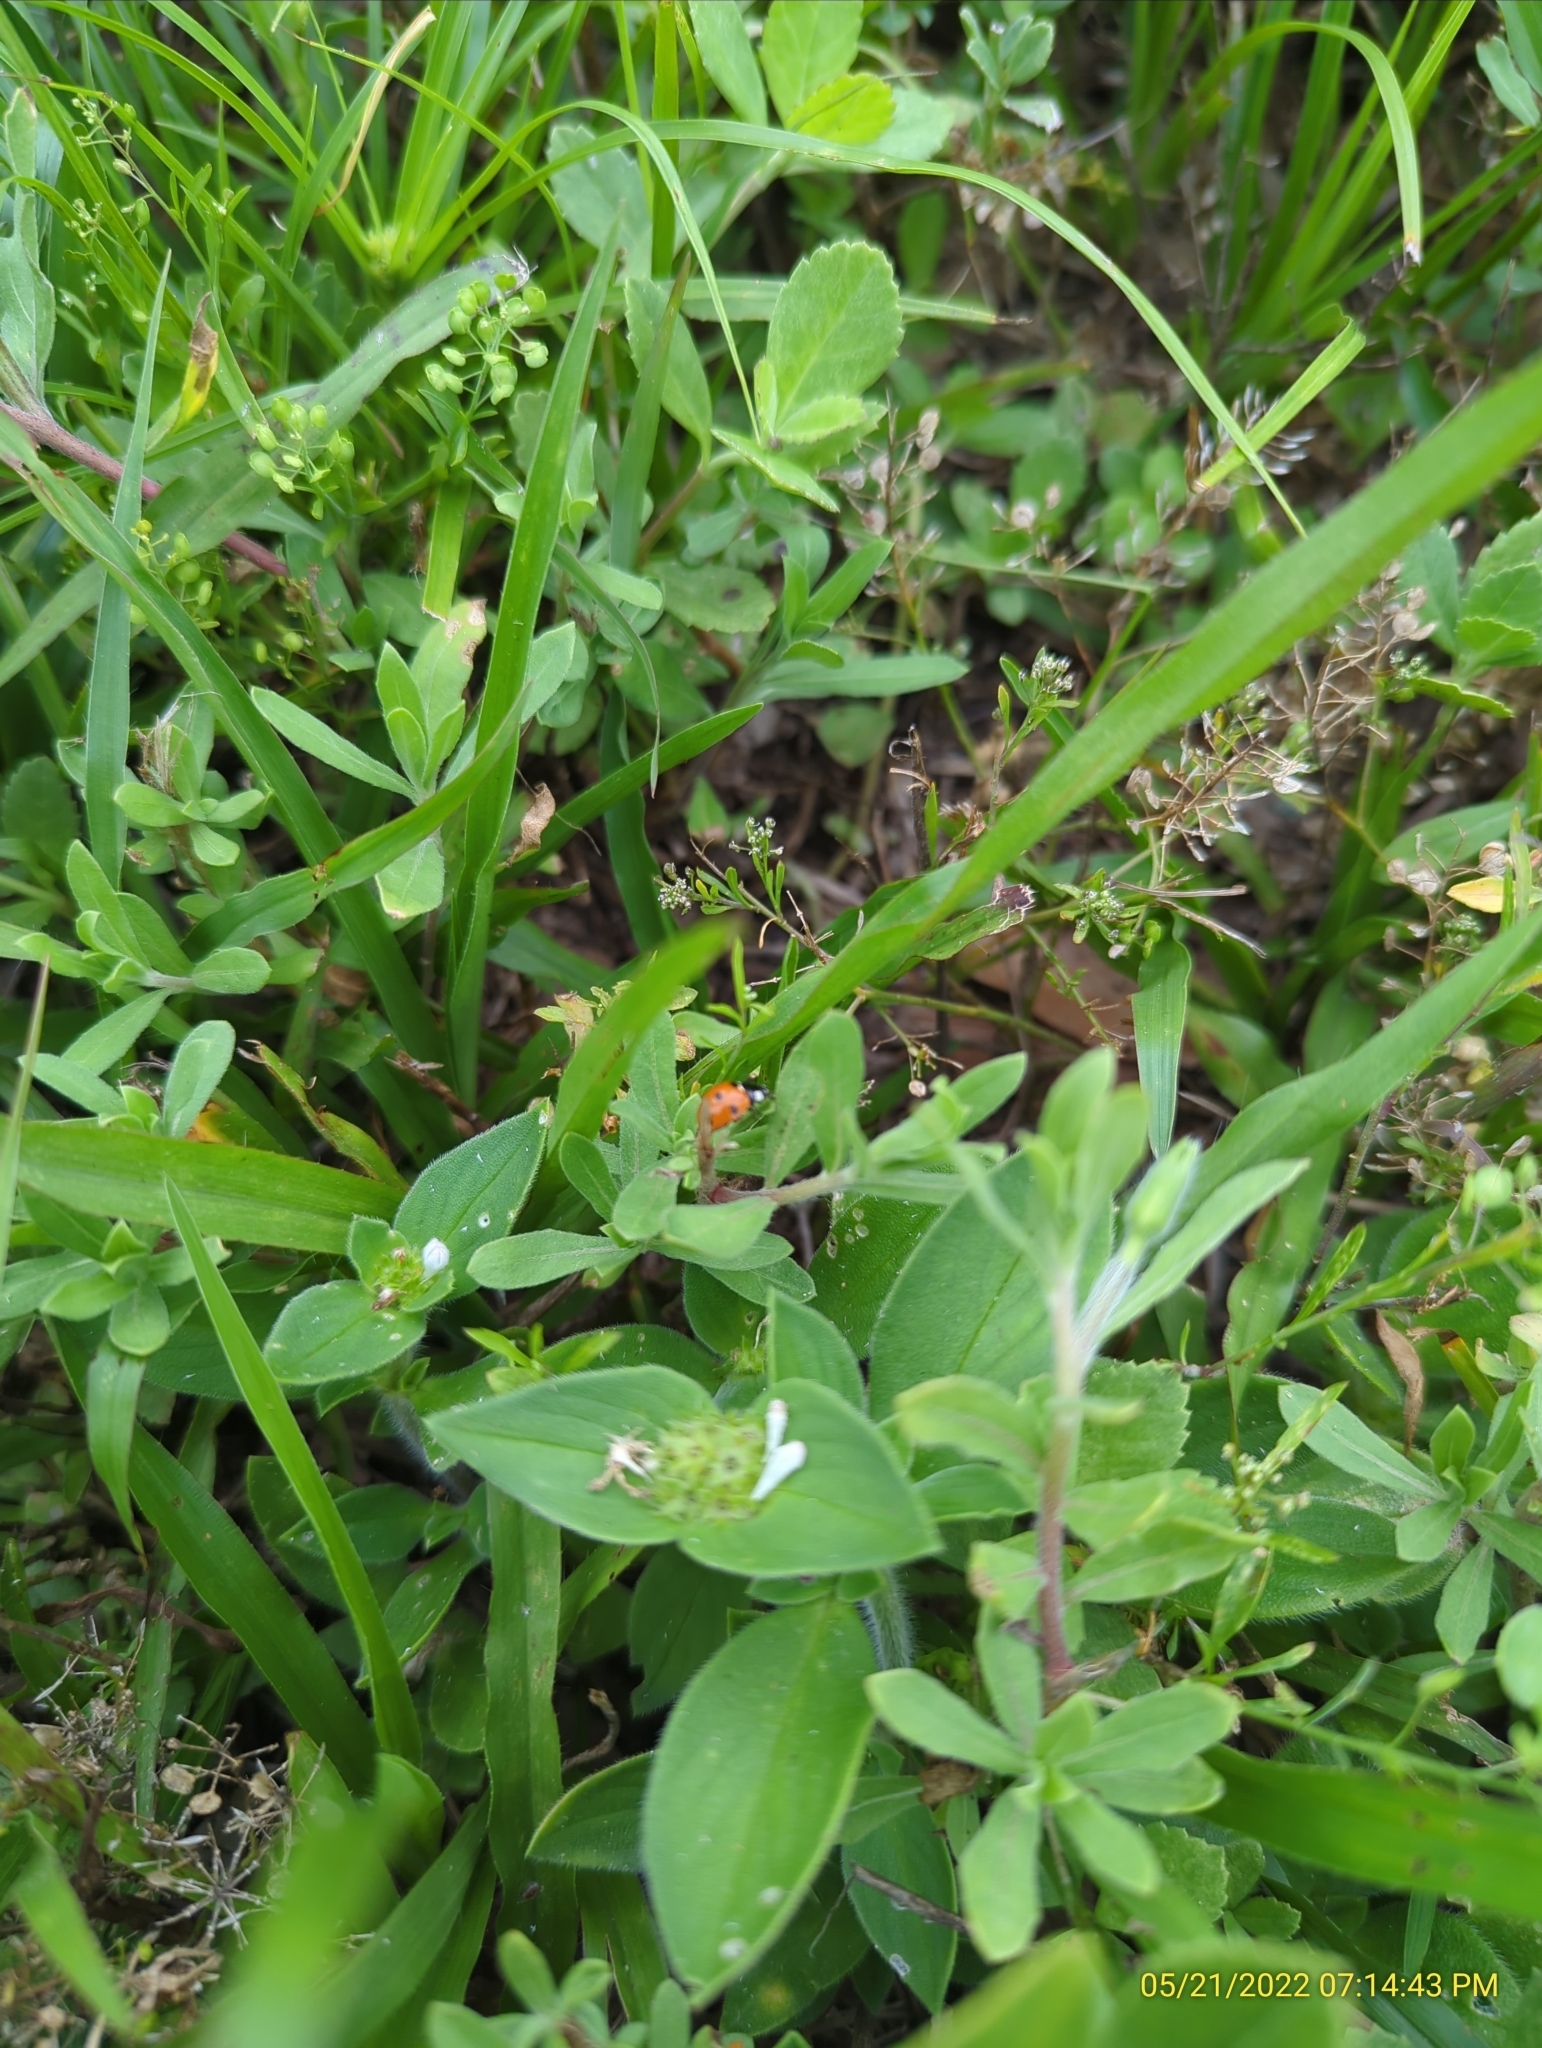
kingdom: Animalia
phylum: Arthropoda
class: Insecta
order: Coleoptera
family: Coccinellidae
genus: Coccinella
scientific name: Coccinella septempunctata
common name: Sevenspotted lady beetle
